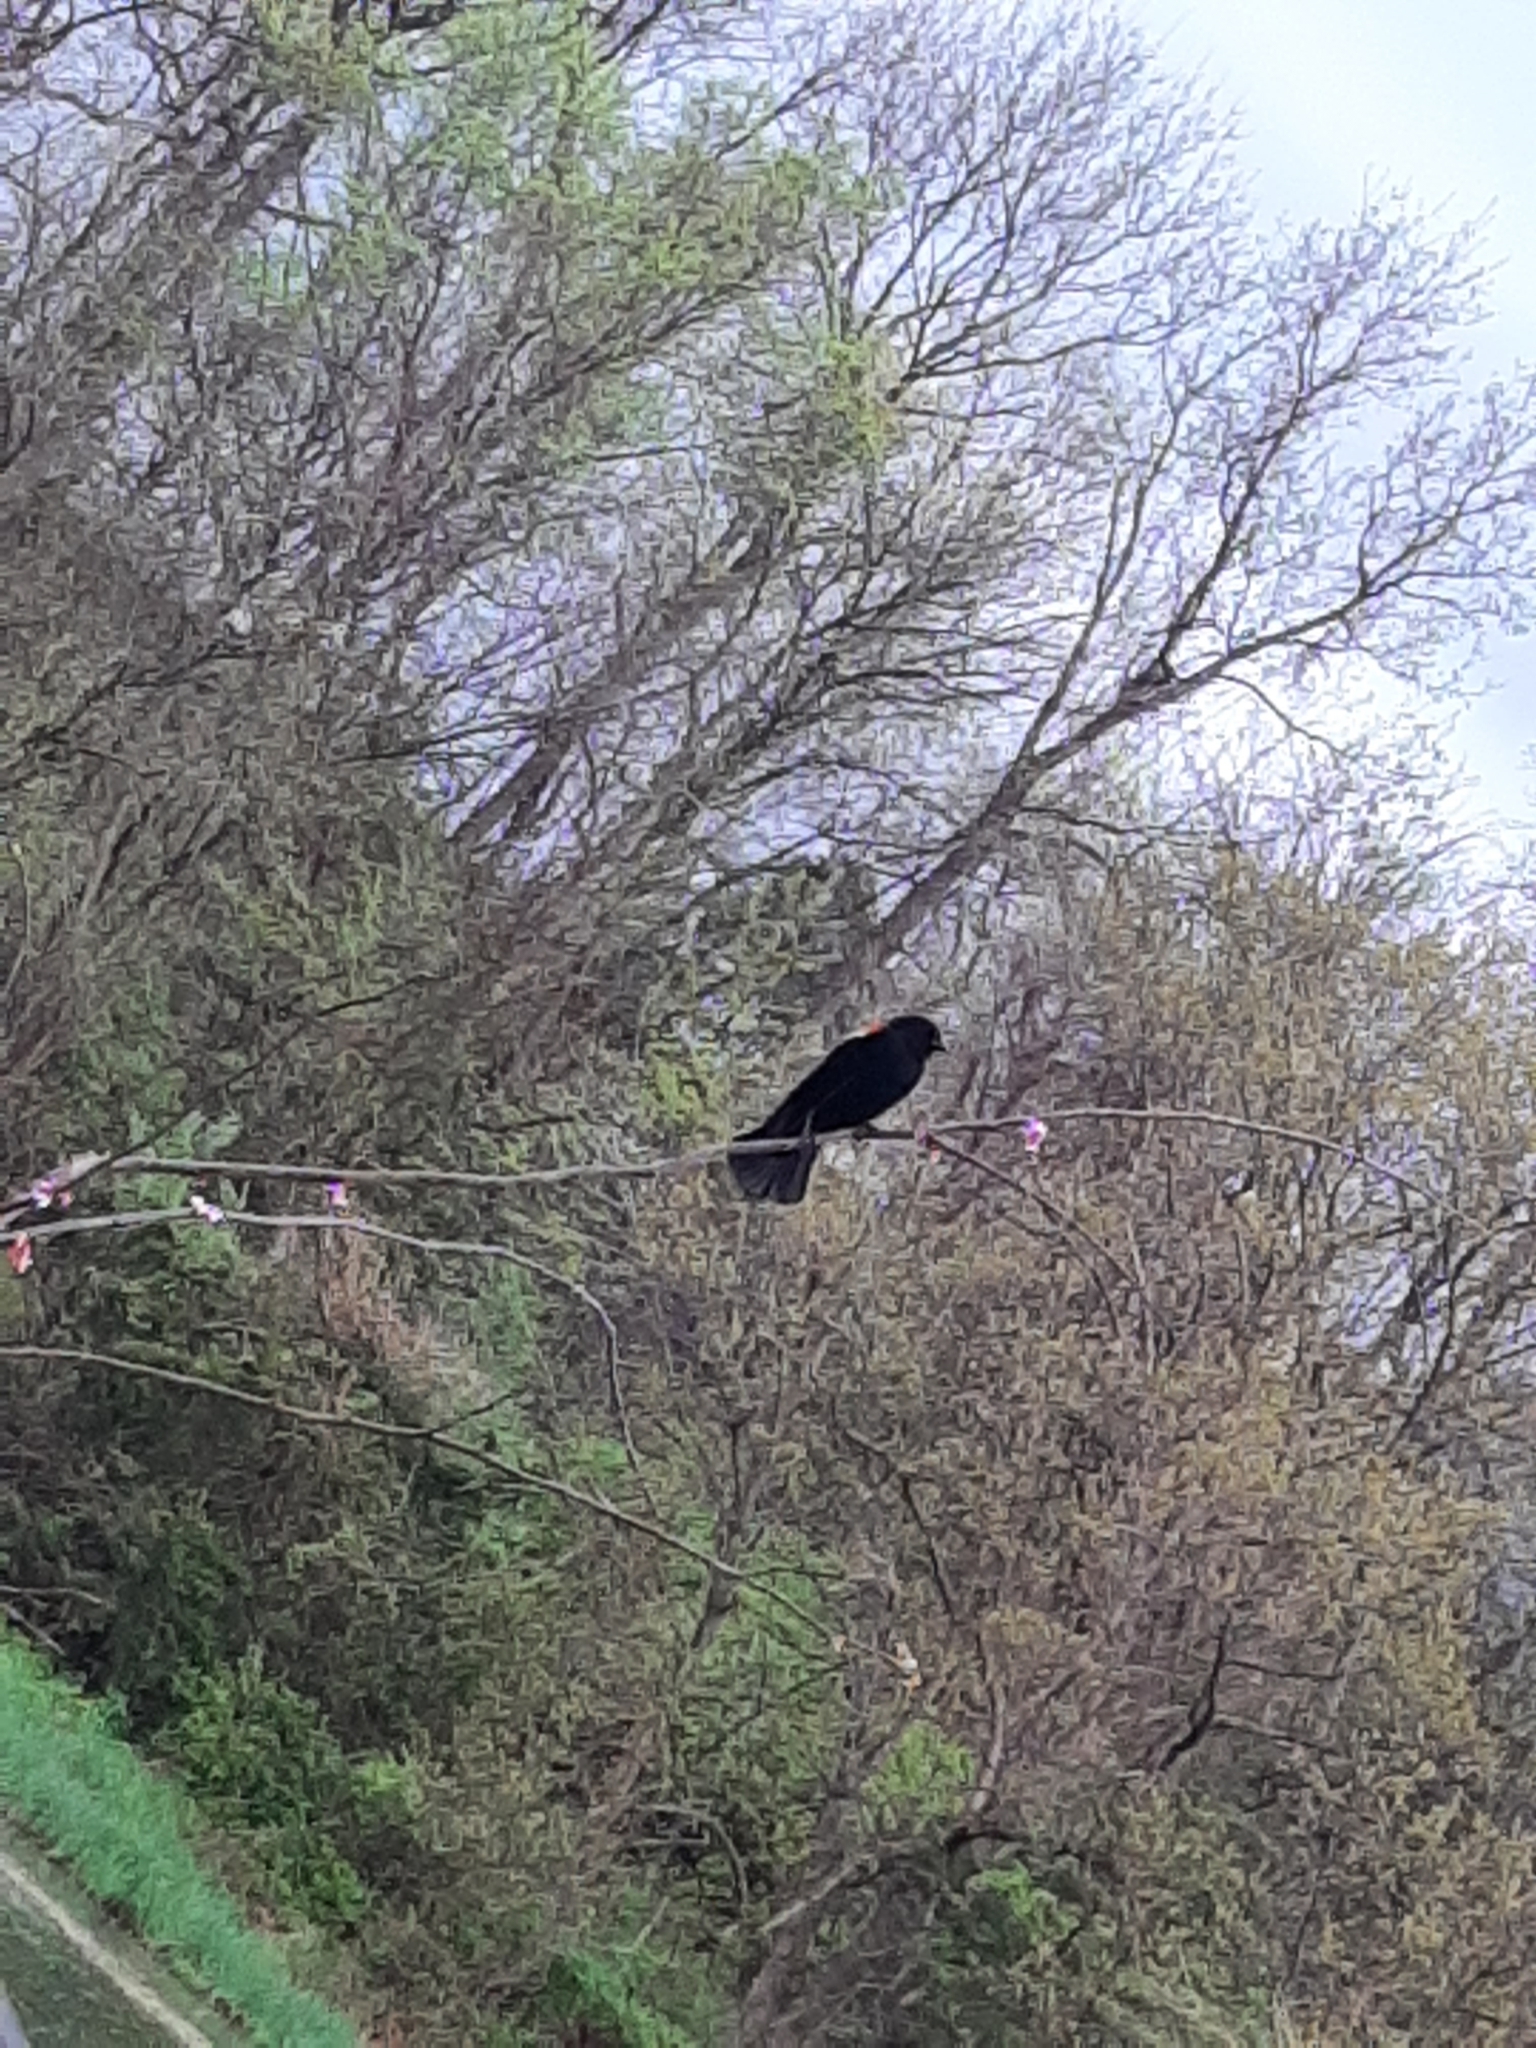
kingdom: Animalia
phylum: Chordata
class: Aves
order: Passeriformes
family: Icteridae
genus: Agelaius
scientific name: Agelaius phoeniceus
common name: Red-winged blackbird
